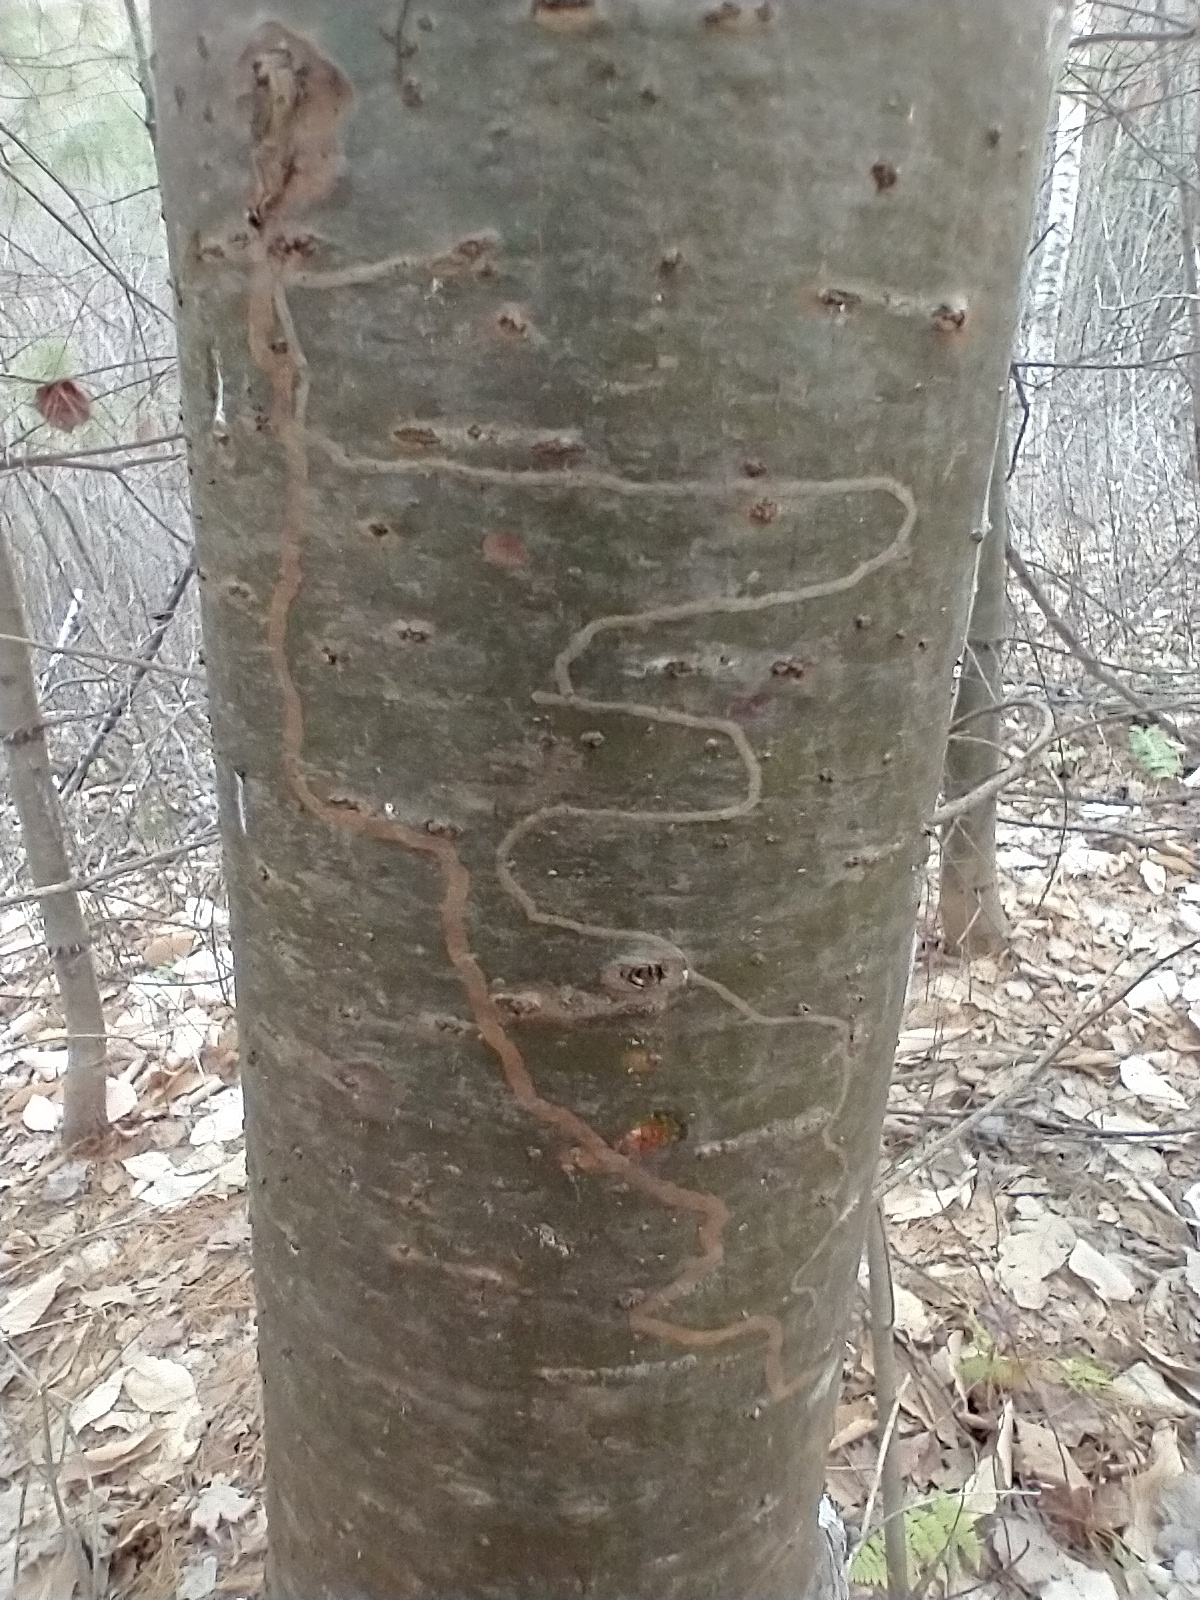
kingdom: Animalia
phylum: Arthropoda
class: Insecta
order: Lepidoptera
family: Gracillariidae
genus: Marmara
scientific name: Marmara fasciella
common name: White pine barkminer moth
